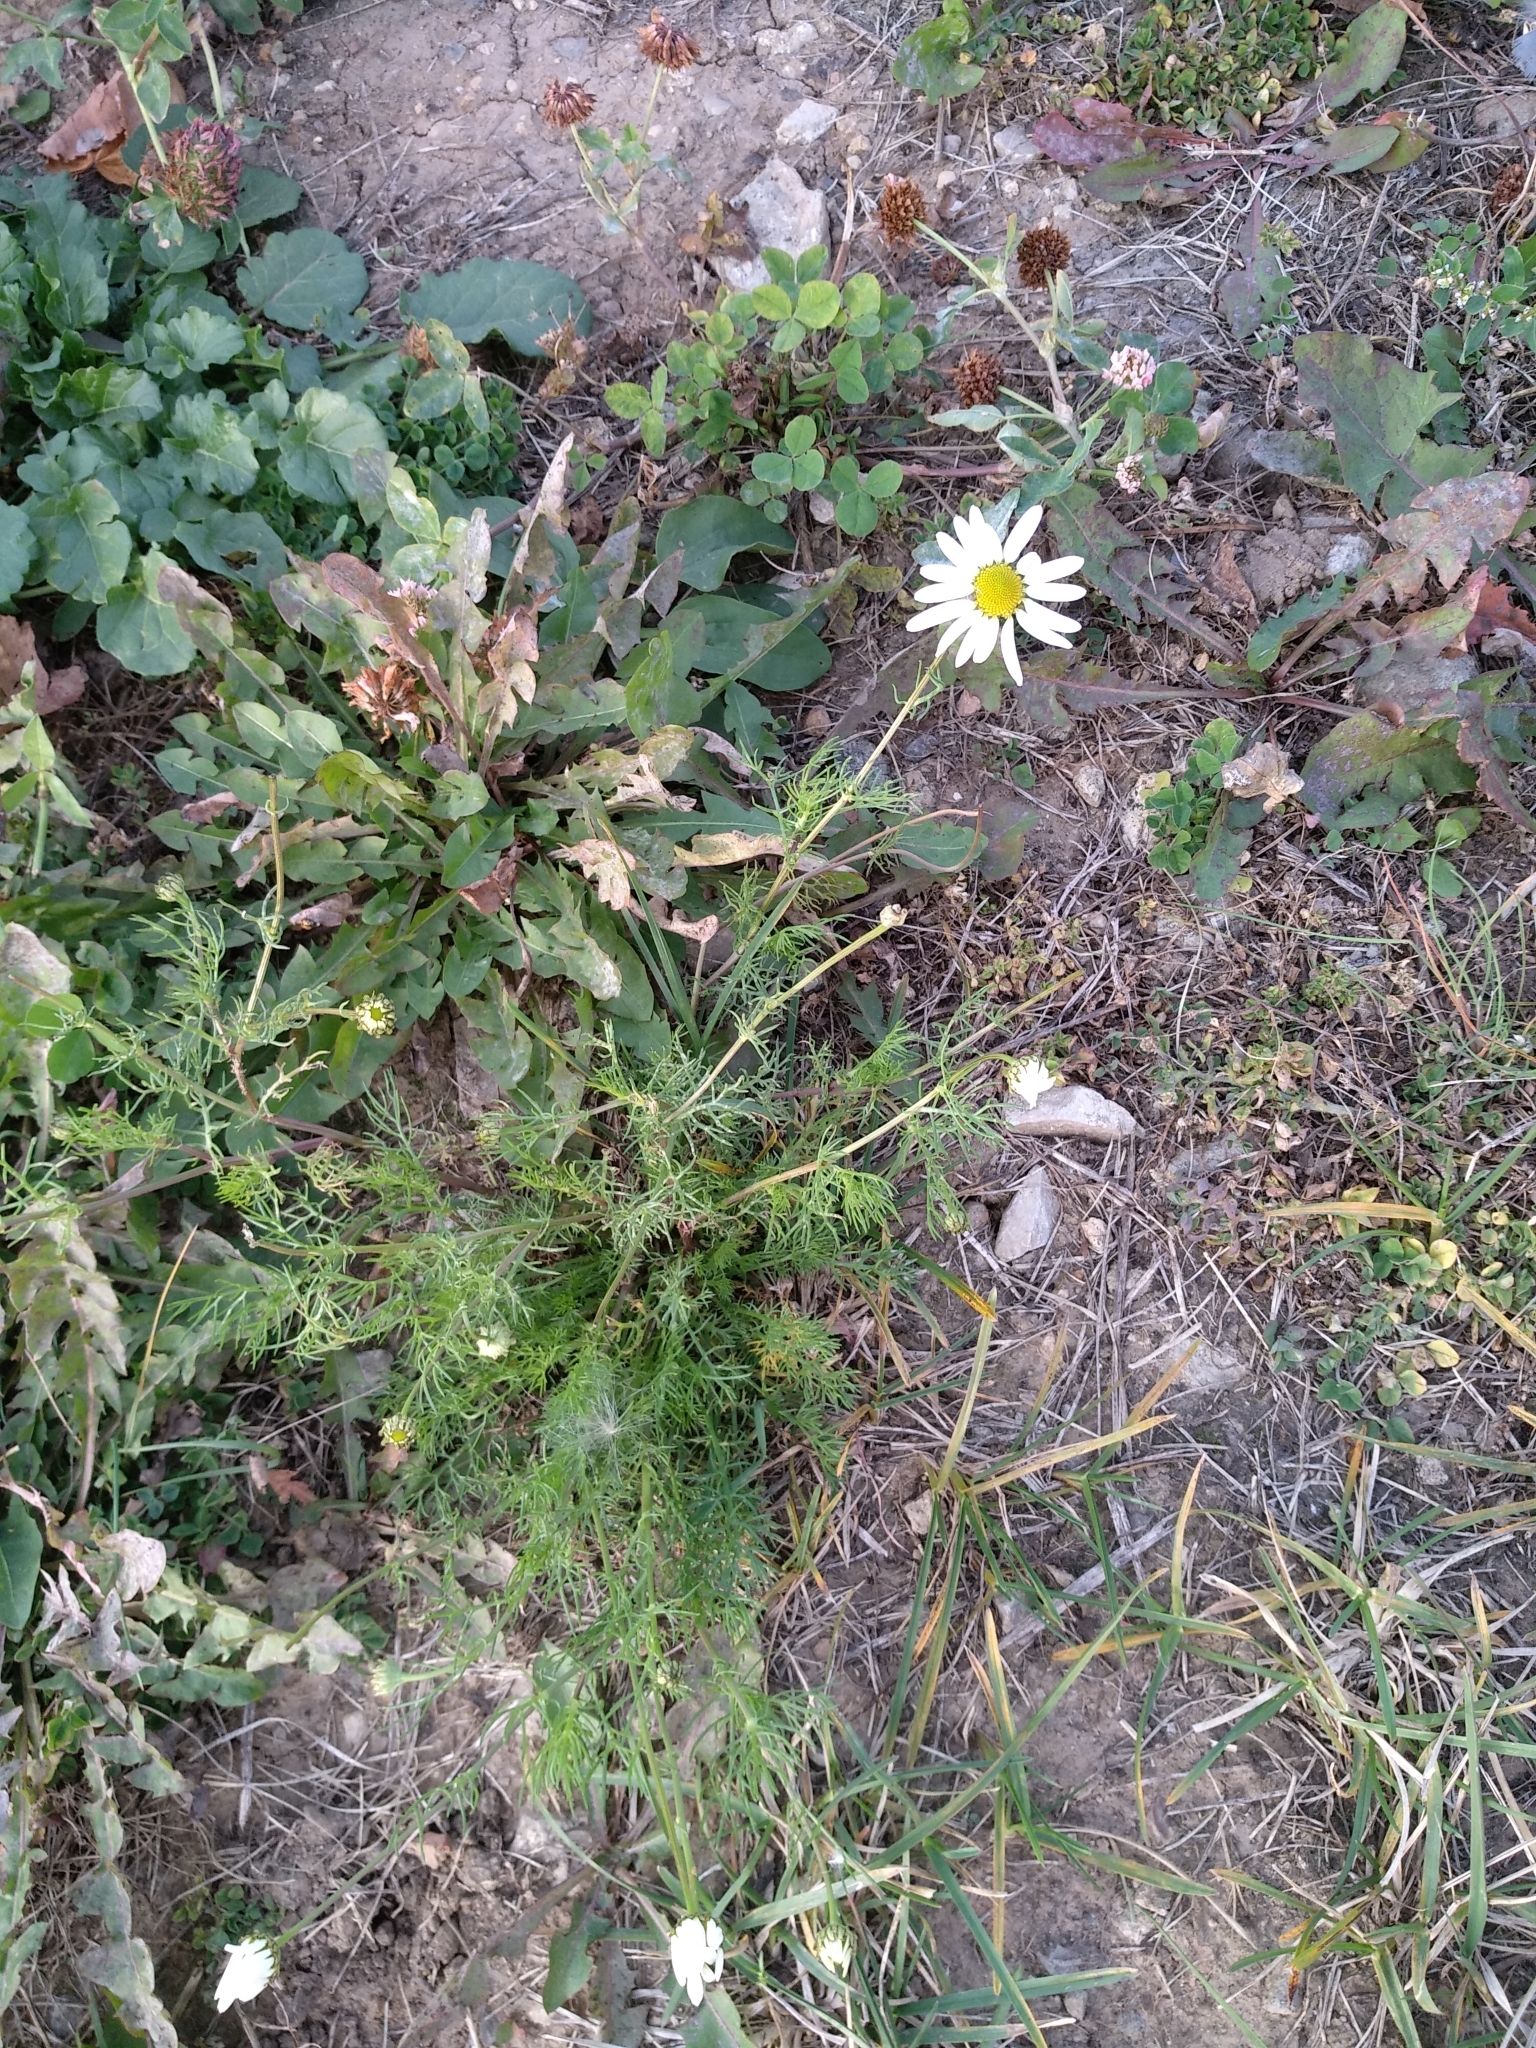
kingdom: Plantae
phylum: Tracheophyta
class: Magnoliopsida
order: Asterales
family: Asteraceae
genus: Tripleurospermum
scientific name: Tripleurospermum inodorum
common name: Scentless mayweed
